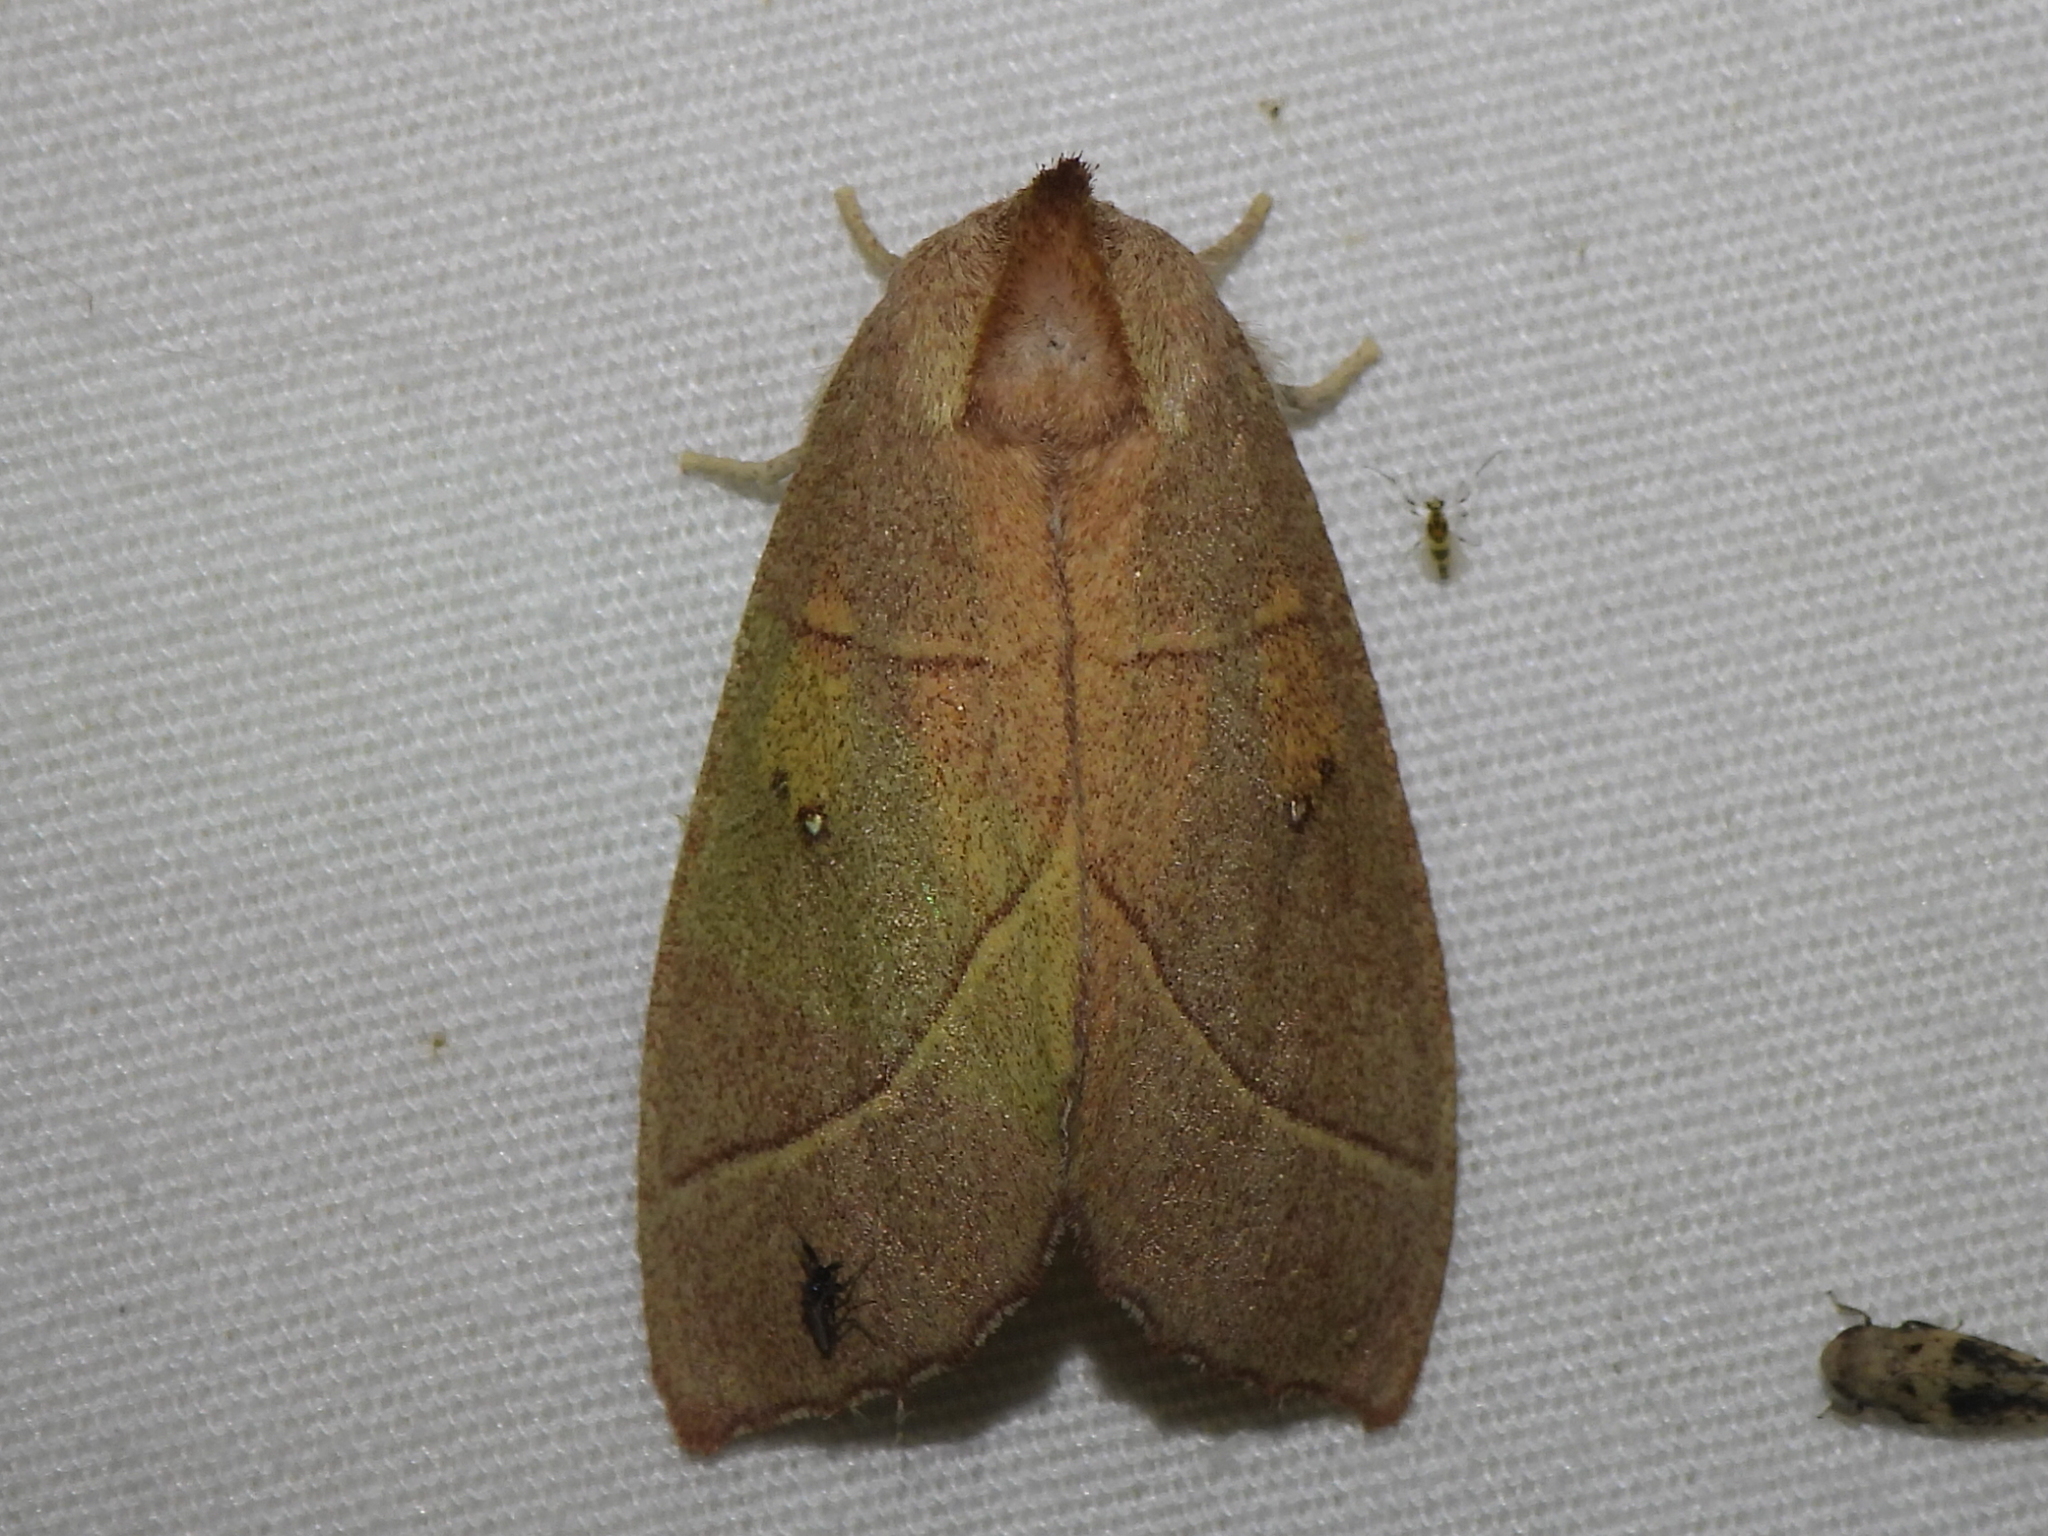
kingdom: Animalia
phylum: Arthropoda
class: Insecta
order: Lepidoptera
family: Notodontidae
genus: Nadata
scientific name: Nadata gibbosa
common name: White-dotted prominent
